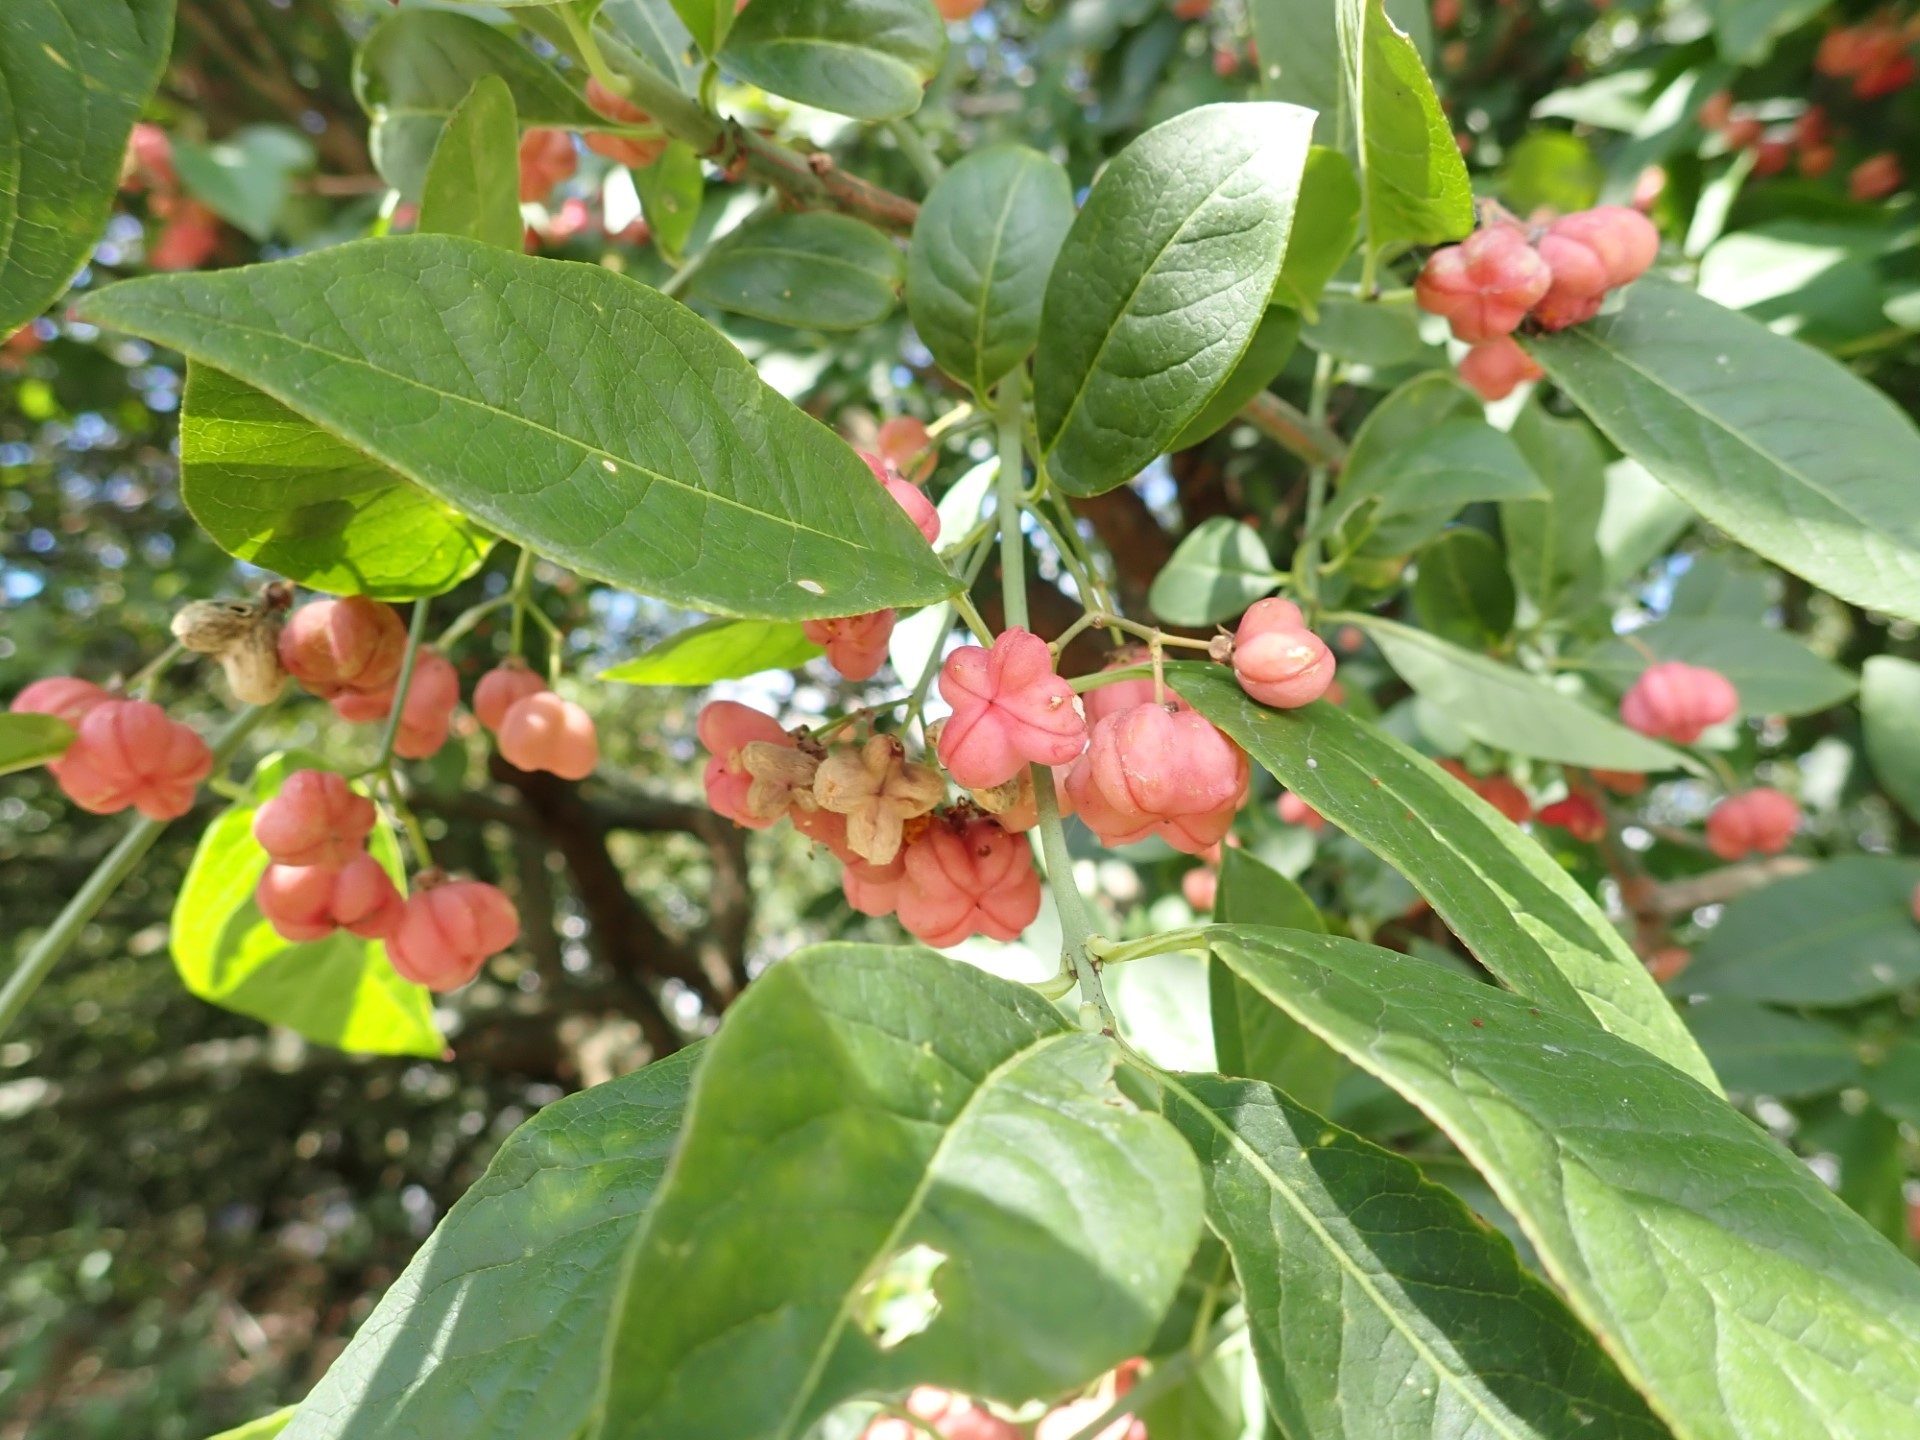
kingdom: Plantae
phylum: Tracheophyta
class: Magnoliopsida
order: Celastrales
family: Celastraceae
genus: Euonymus
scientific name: Euonymus europaeus
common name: Spindle
